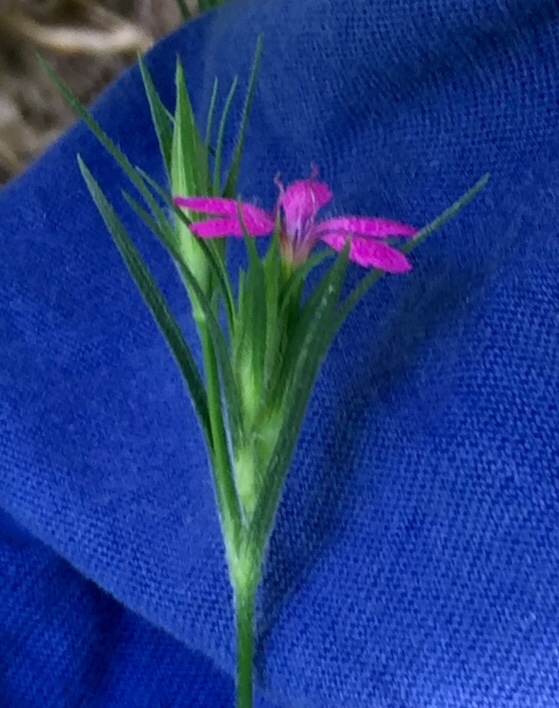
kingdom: Plantae
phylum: Tracheophyta
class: Magnoliopsida
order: Caryophyllales
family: Caryophyllaceae
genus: Dianthus
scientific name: Dianthus armeria
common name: Deptford pink
